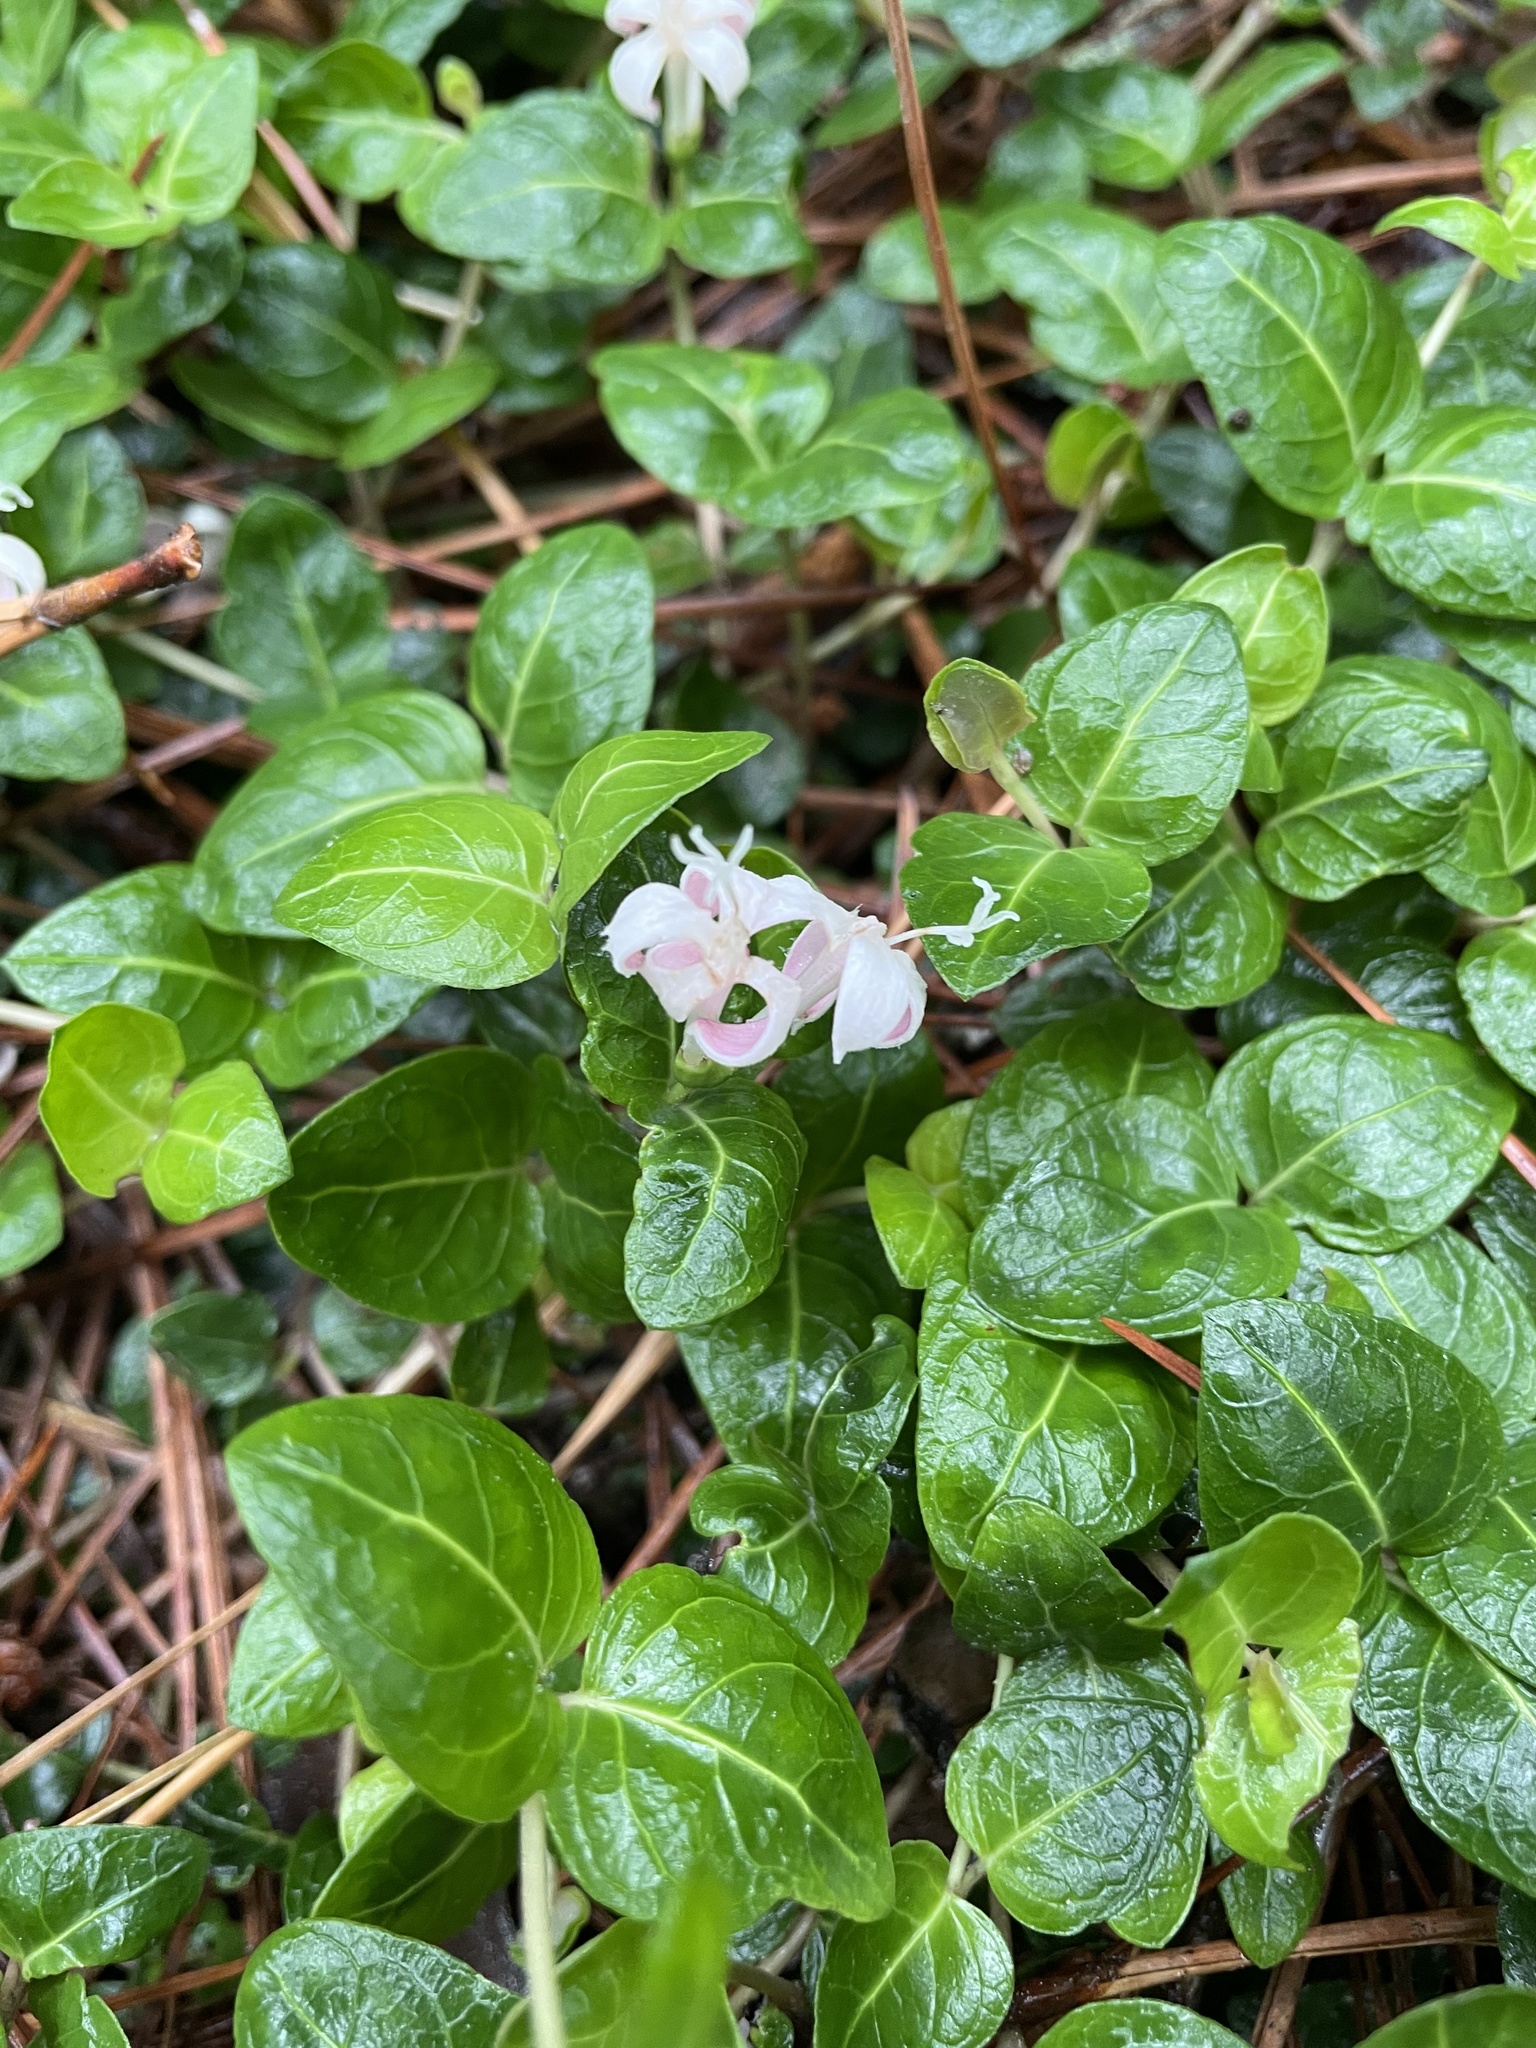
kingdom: Plantae
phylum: Tracheophyta
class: Magnoliopsida
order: Gentianales
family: Rubiaceae
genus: Mitchella
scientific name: Mitchella repens
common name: Partridge-berry
